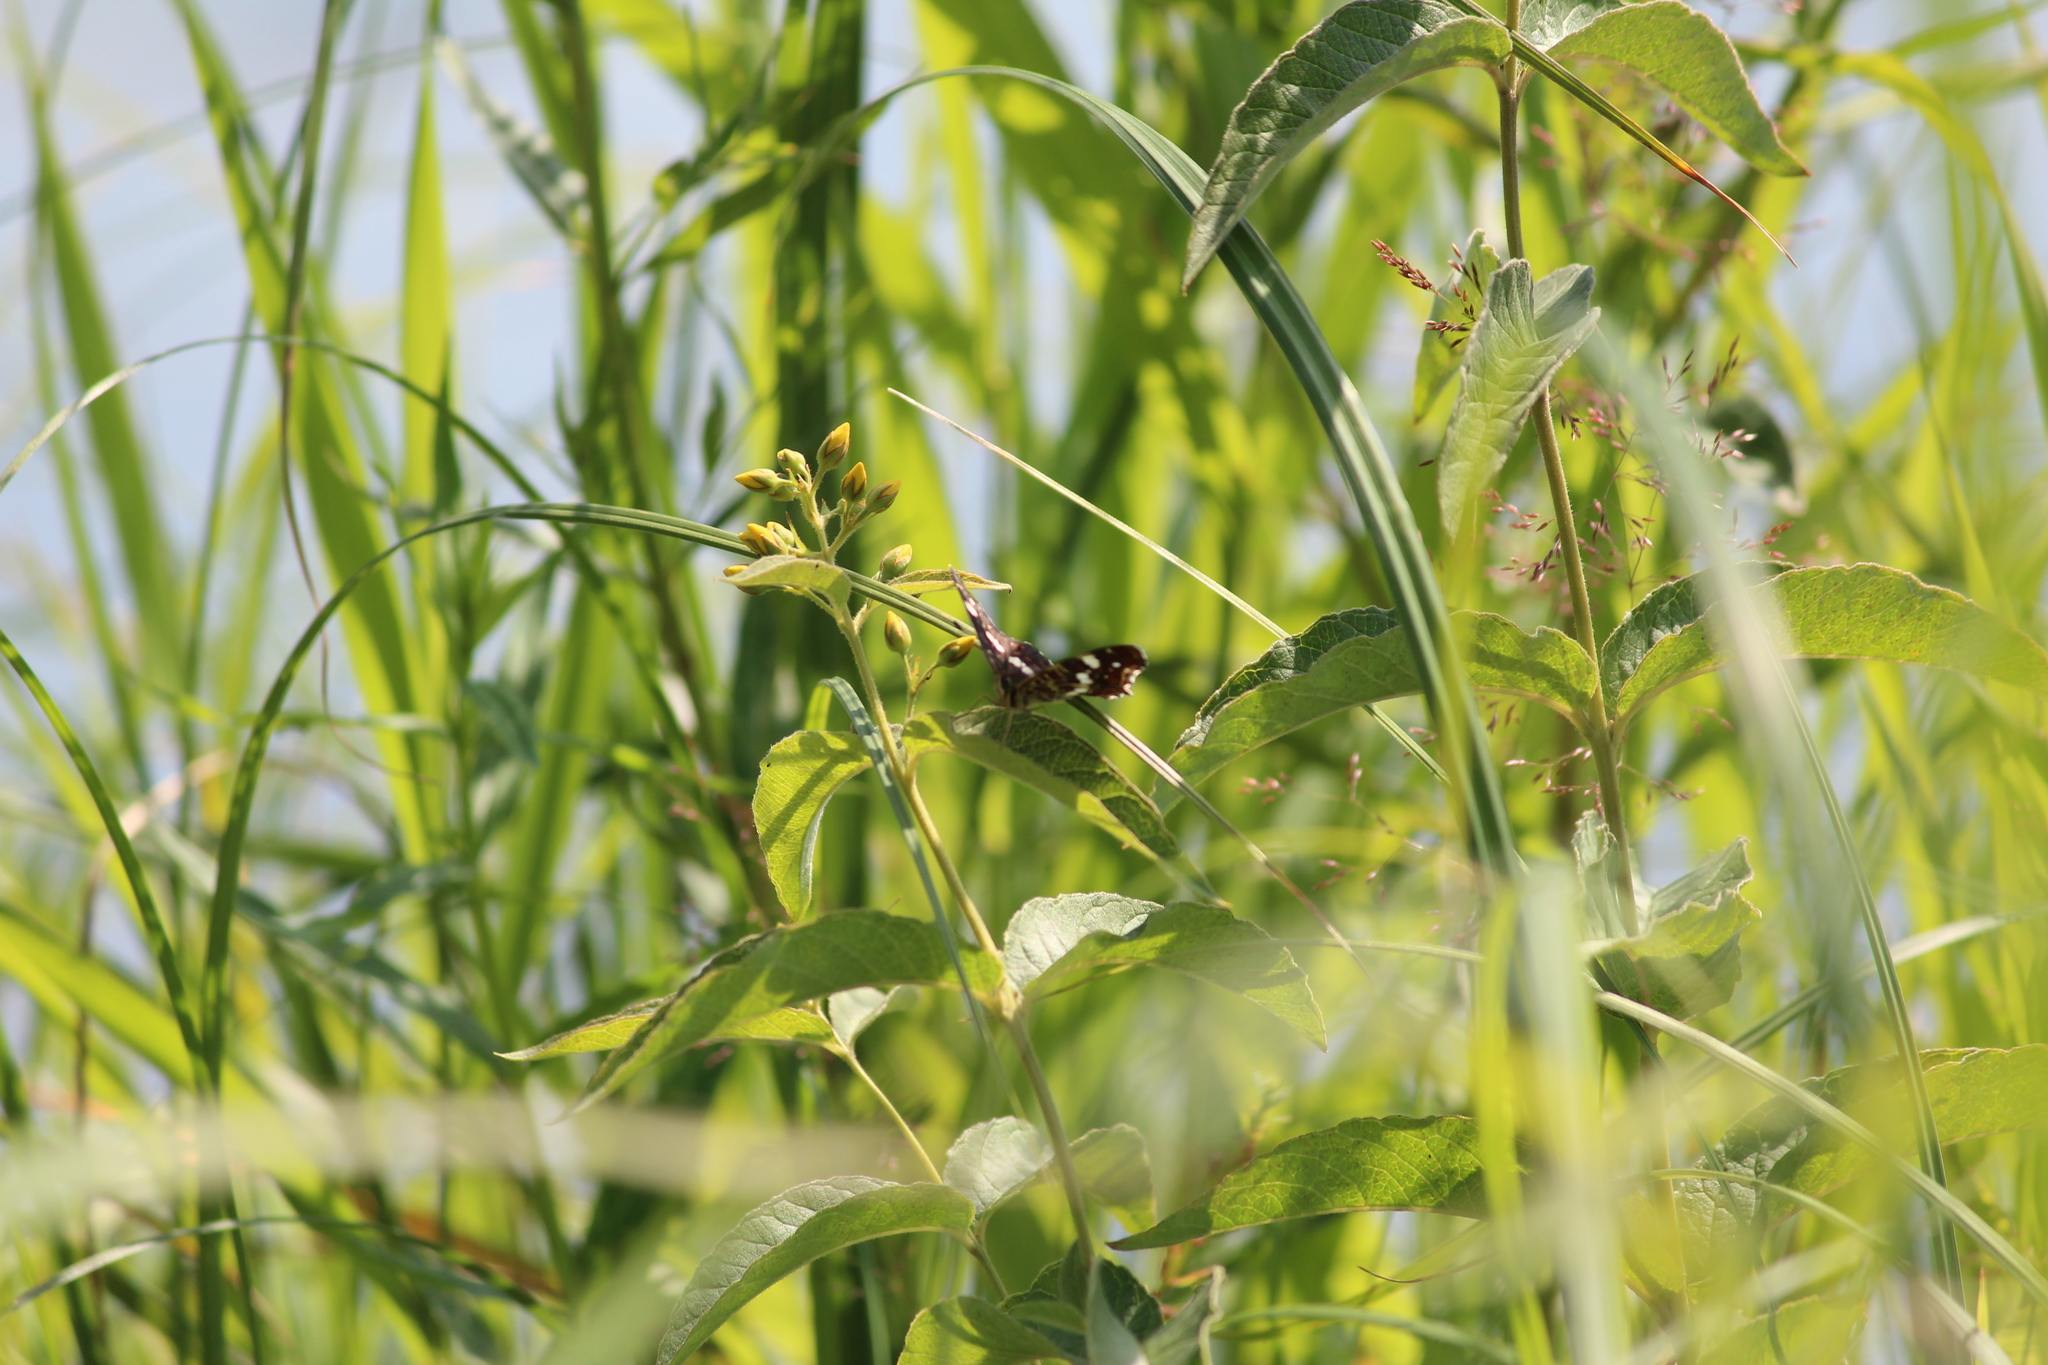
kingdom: Animalia
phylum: Arthropoda
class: Insecta
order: Lepidoptera
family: Nymphalidae
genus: Araschnia
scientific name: Araschnia levana
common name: Map butterfly
